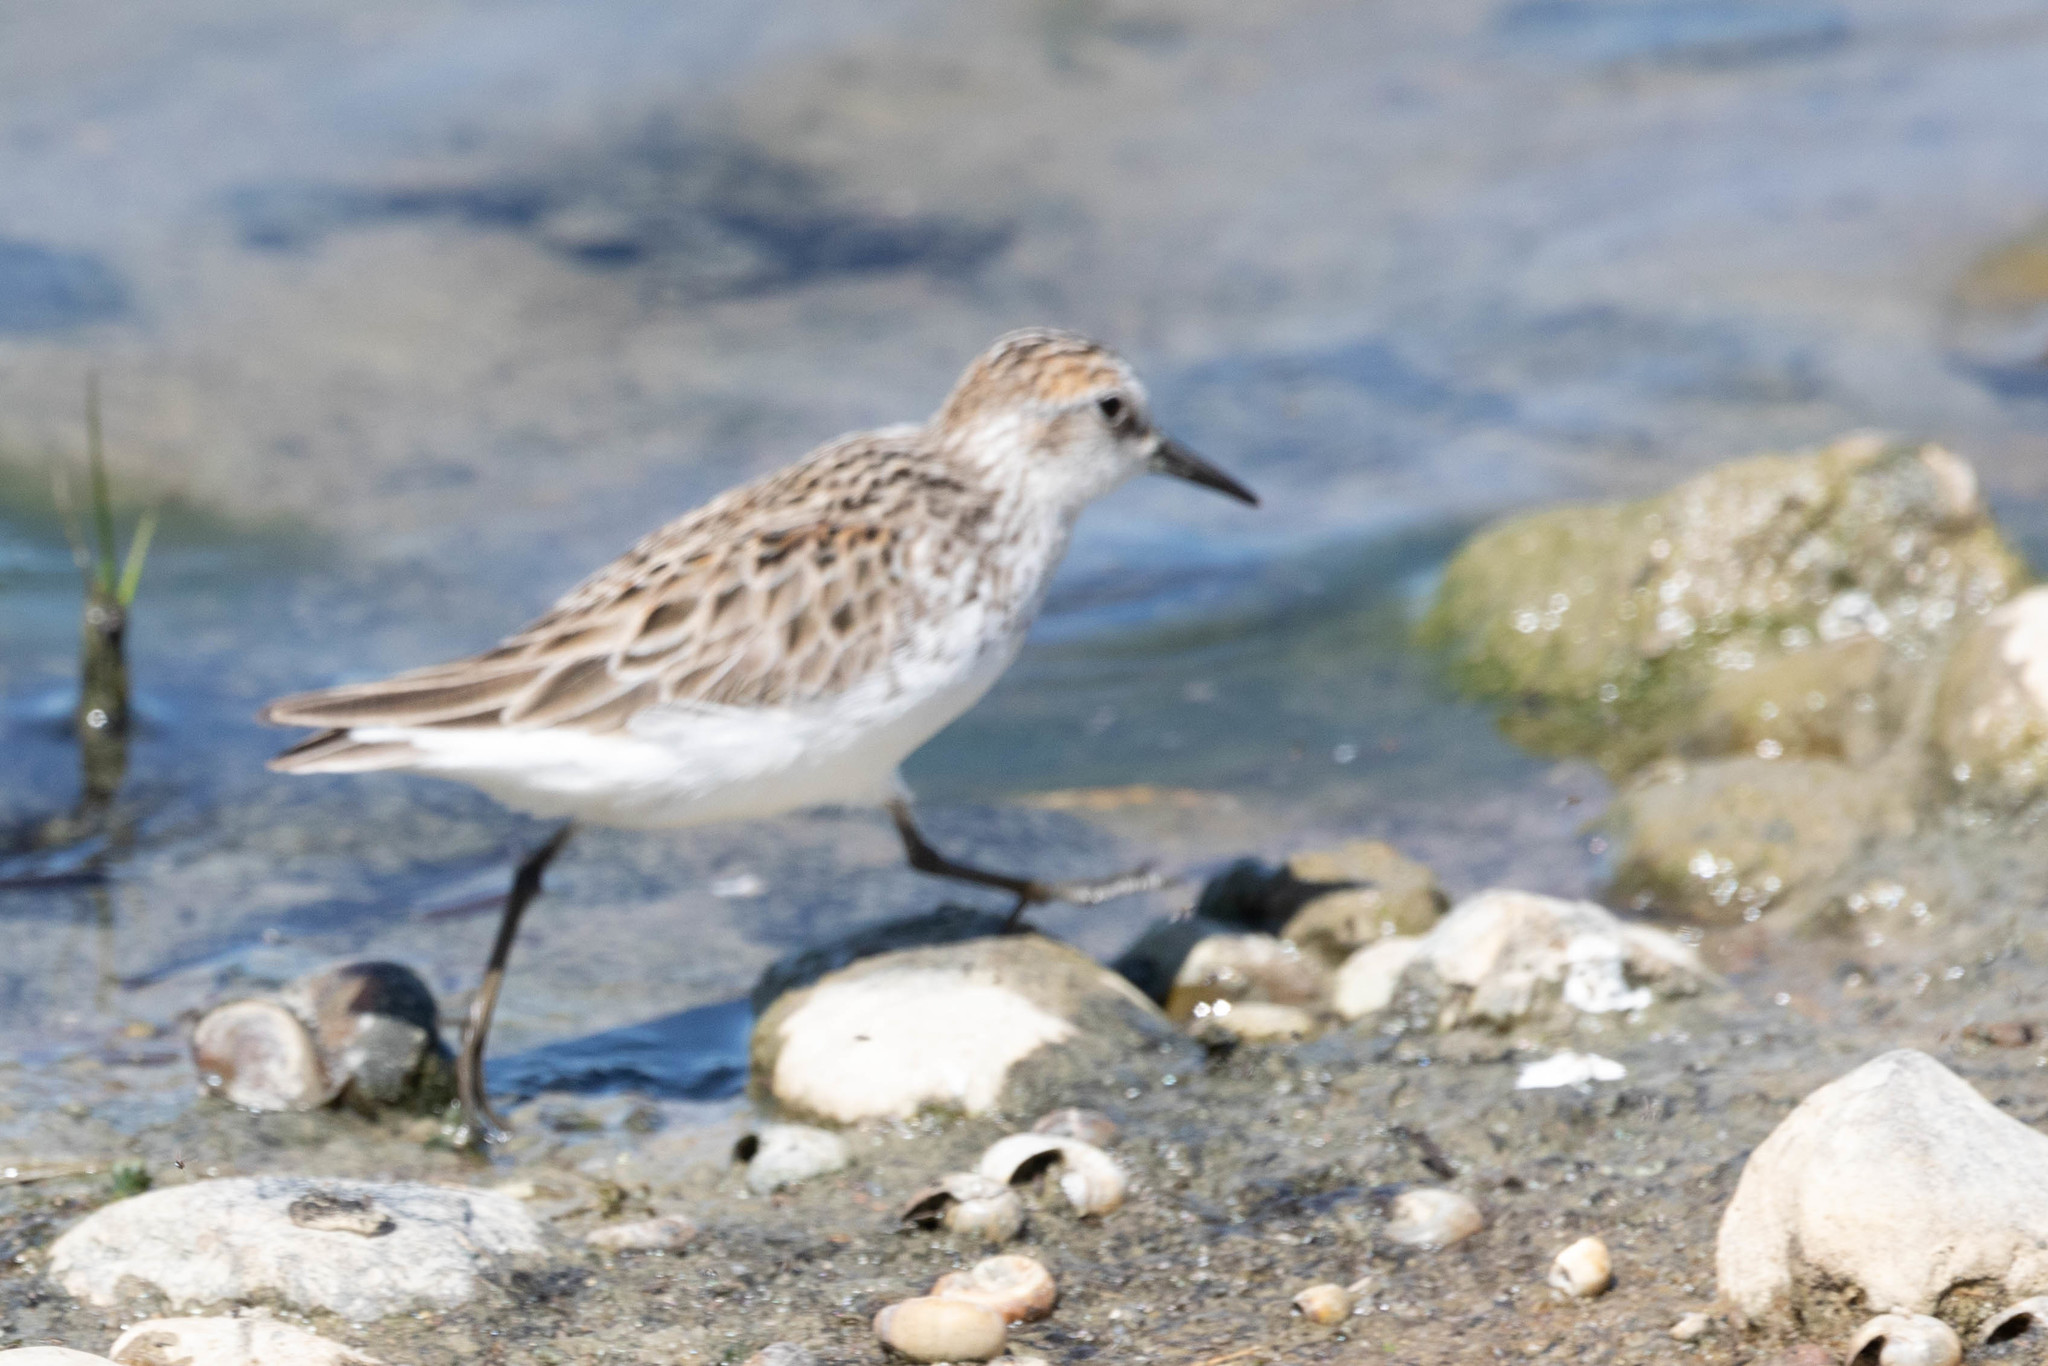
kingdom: Animalia
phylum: Chordata
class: Aves
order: Charadriiformes
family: Scolopacidae
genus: Calidris
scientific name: Calidris pusilla
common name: Semipalmated sandpiper
